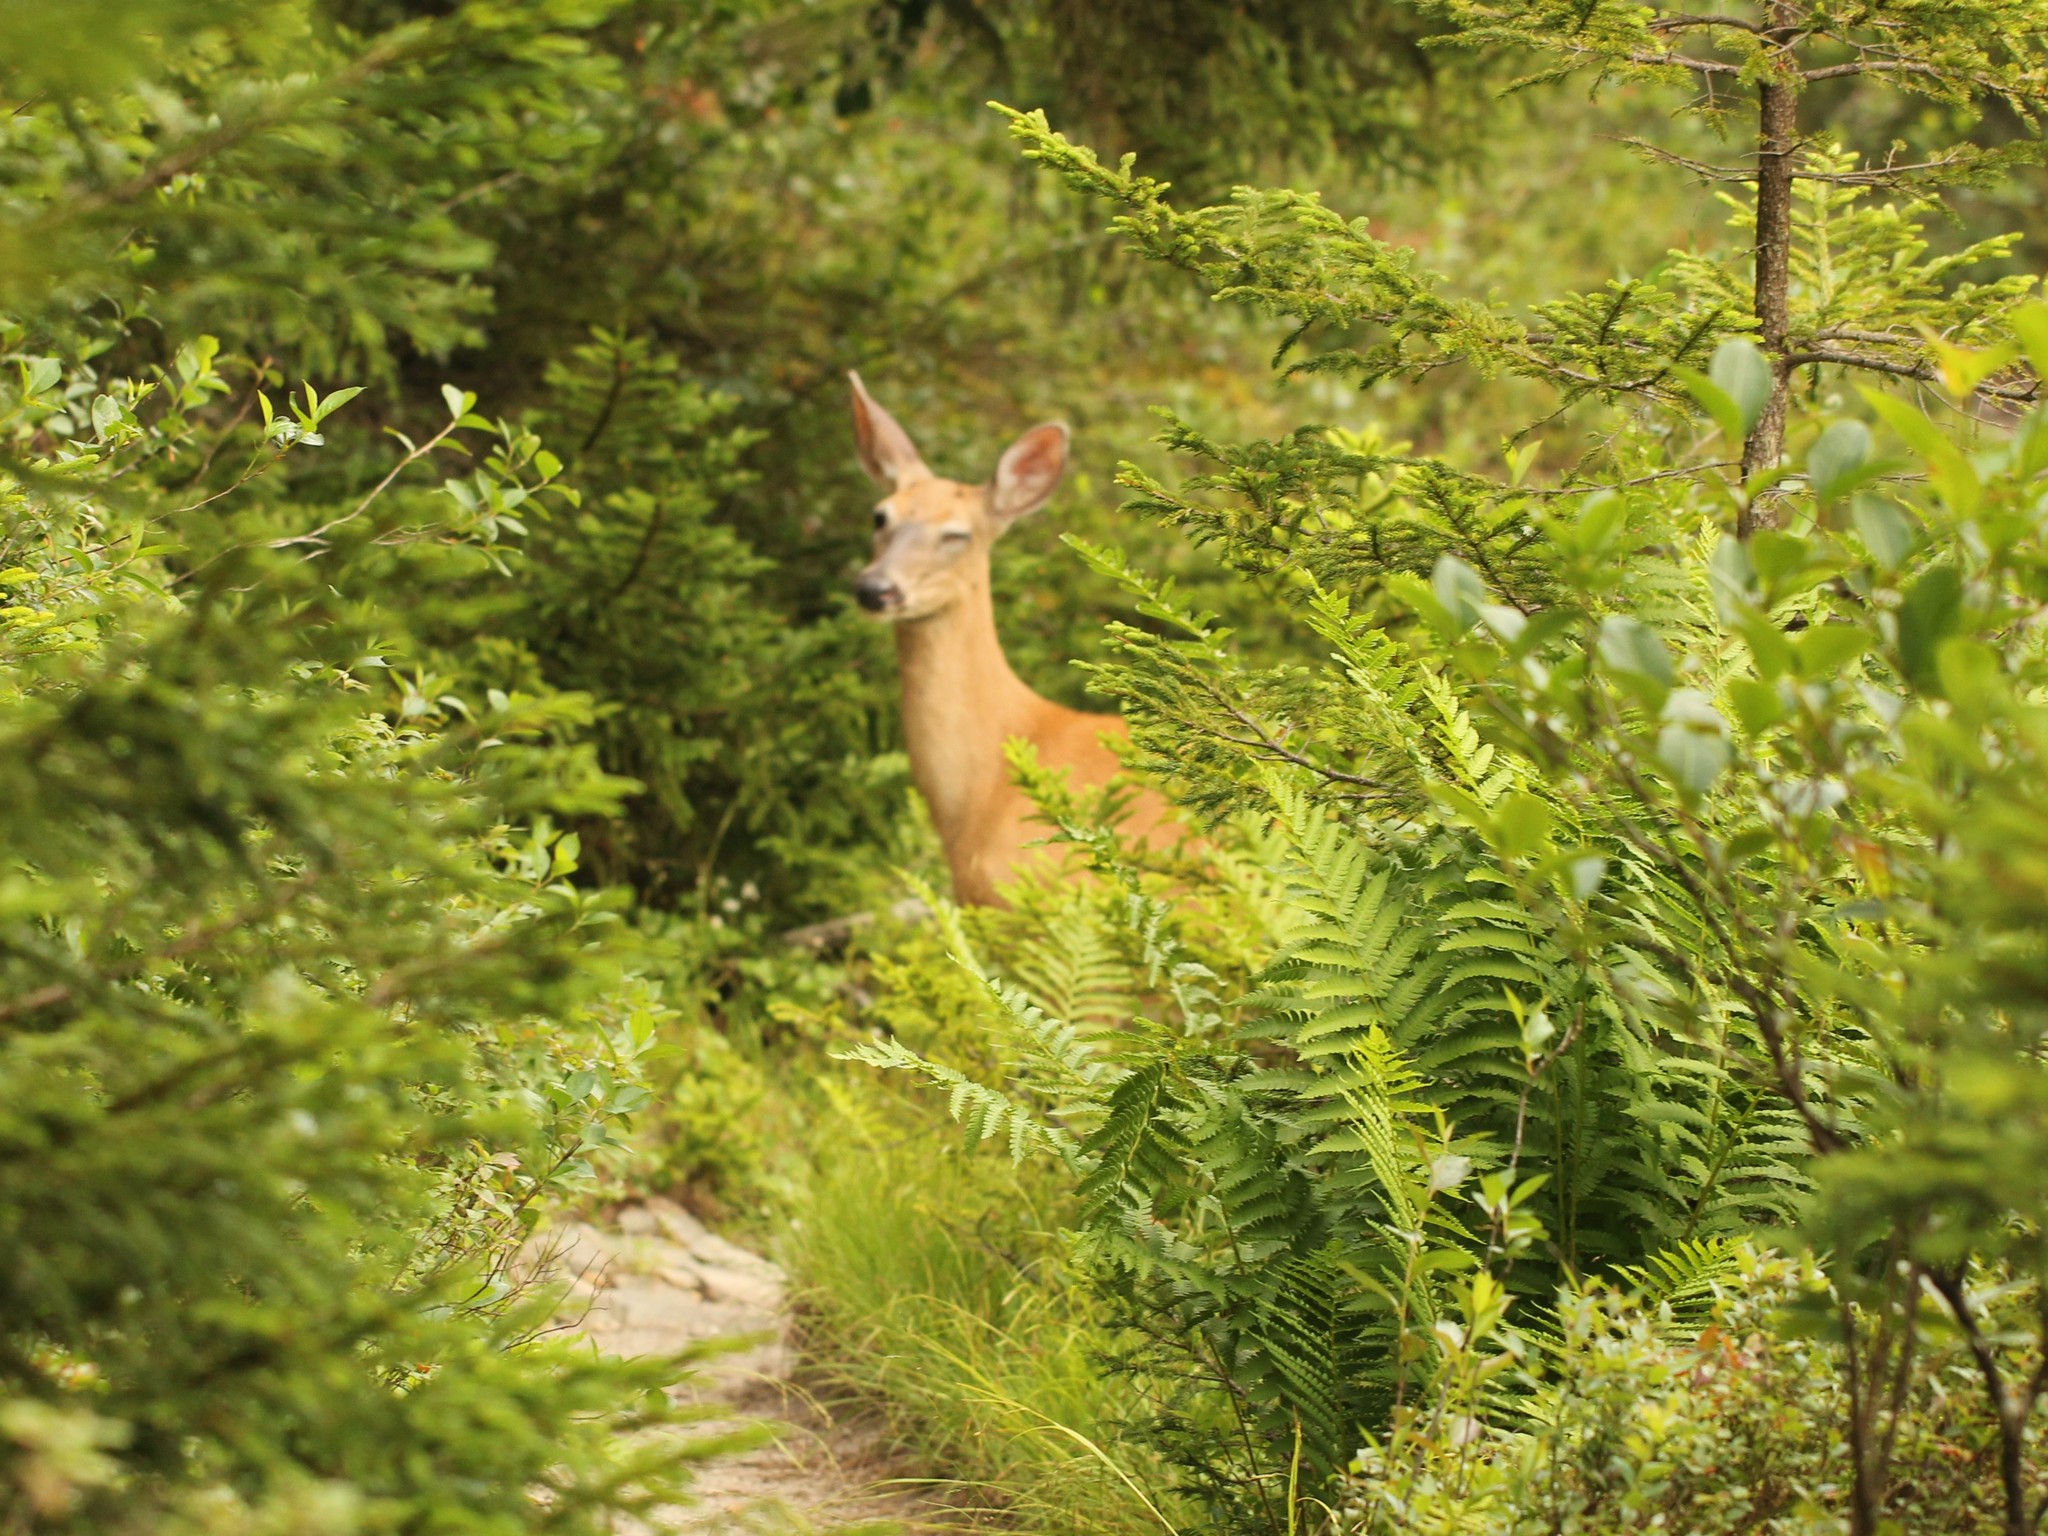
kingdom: Animalia
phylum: Chordata
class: Mammalia
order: Artiodactyla
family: Cervidae
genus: Odocoileus
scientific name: Odocoileus virginianus
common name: White-tailed deer
